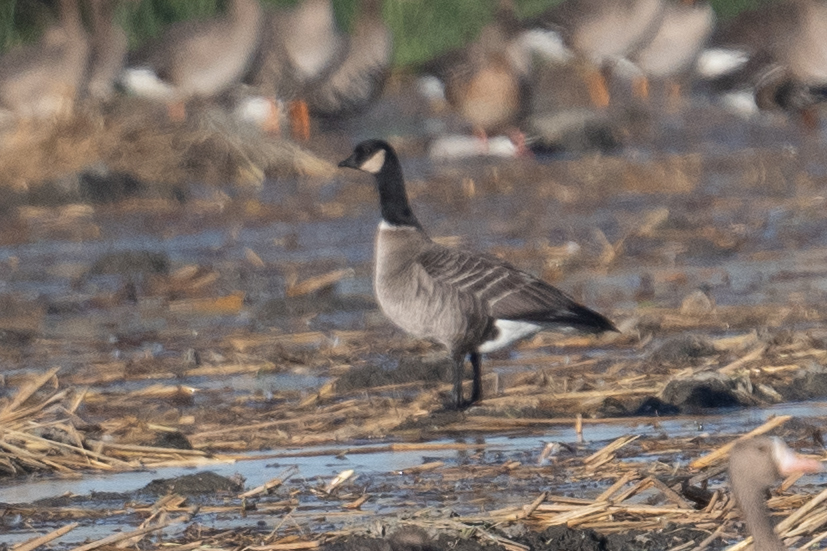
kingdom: Animalia
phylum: Chordata
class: Aves
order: Anseriformes
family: Anatidae
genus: Branta
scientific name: Branta hutchinsii
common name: Cackling goose
